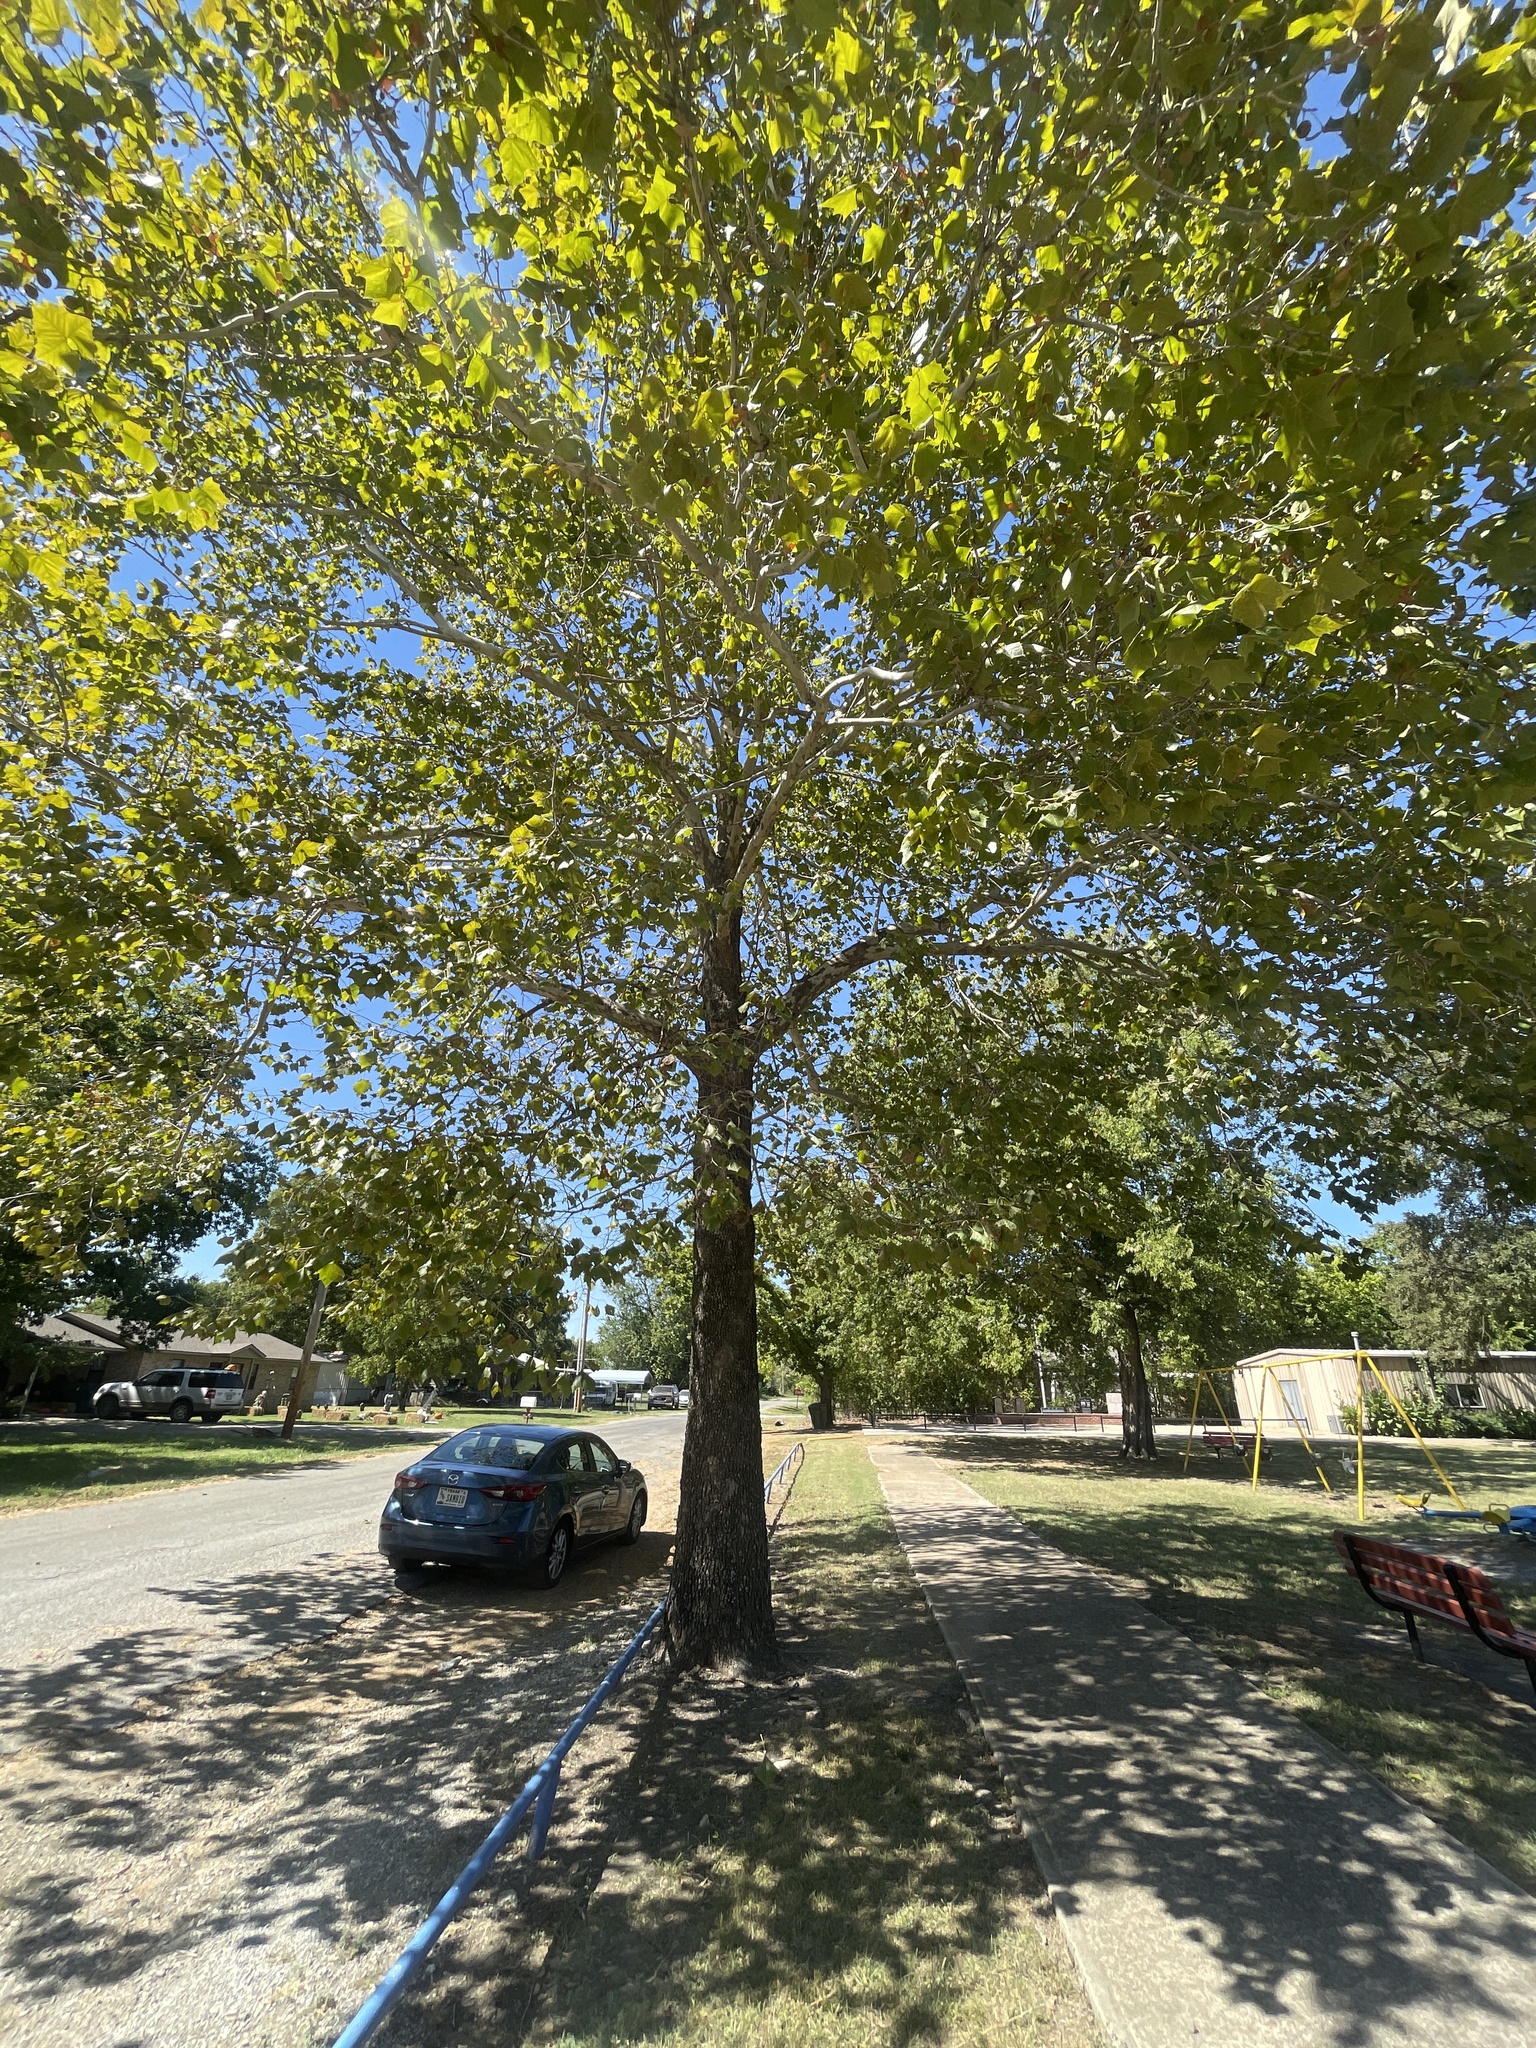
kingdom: Plantae
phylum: Tracheophyta
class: Magnoliopsida
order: Proteales
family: Platanaceae
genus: Platanus
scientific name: Platanus occidentalis
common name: American sycamore
